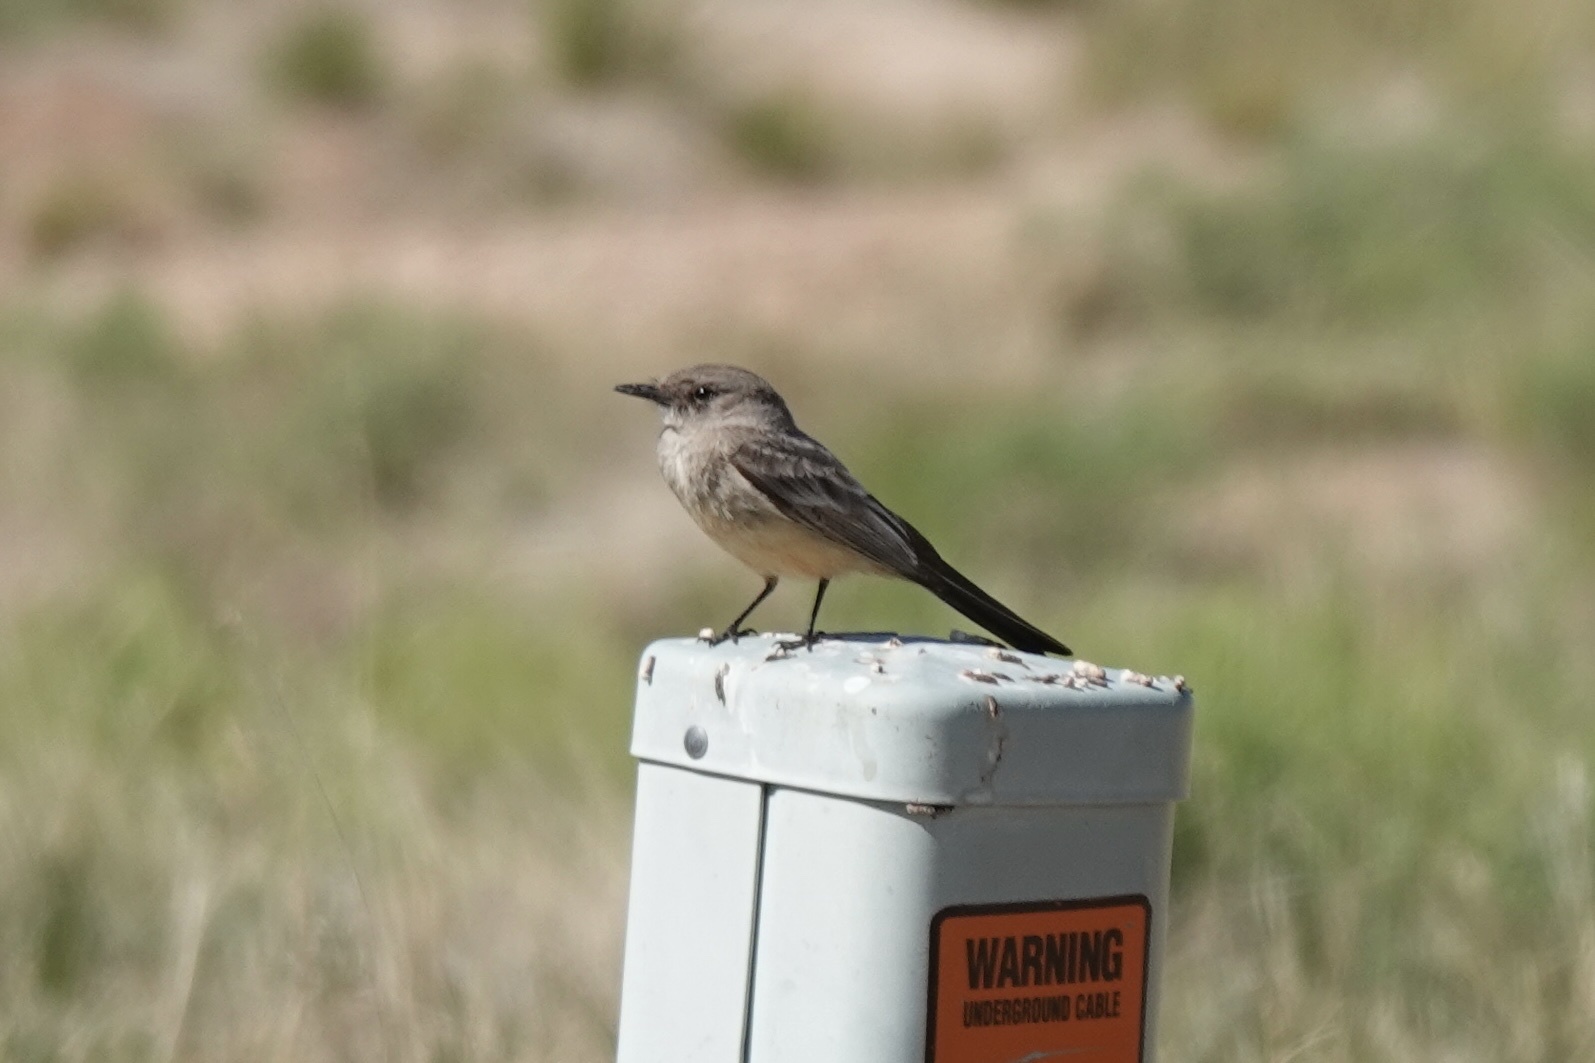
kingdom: Animalia
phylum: Chordata
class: Aves
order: Passeriformes
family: Tyrannidae
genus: Sayornis
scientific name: Sayornis saya
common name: Say's phoebe
